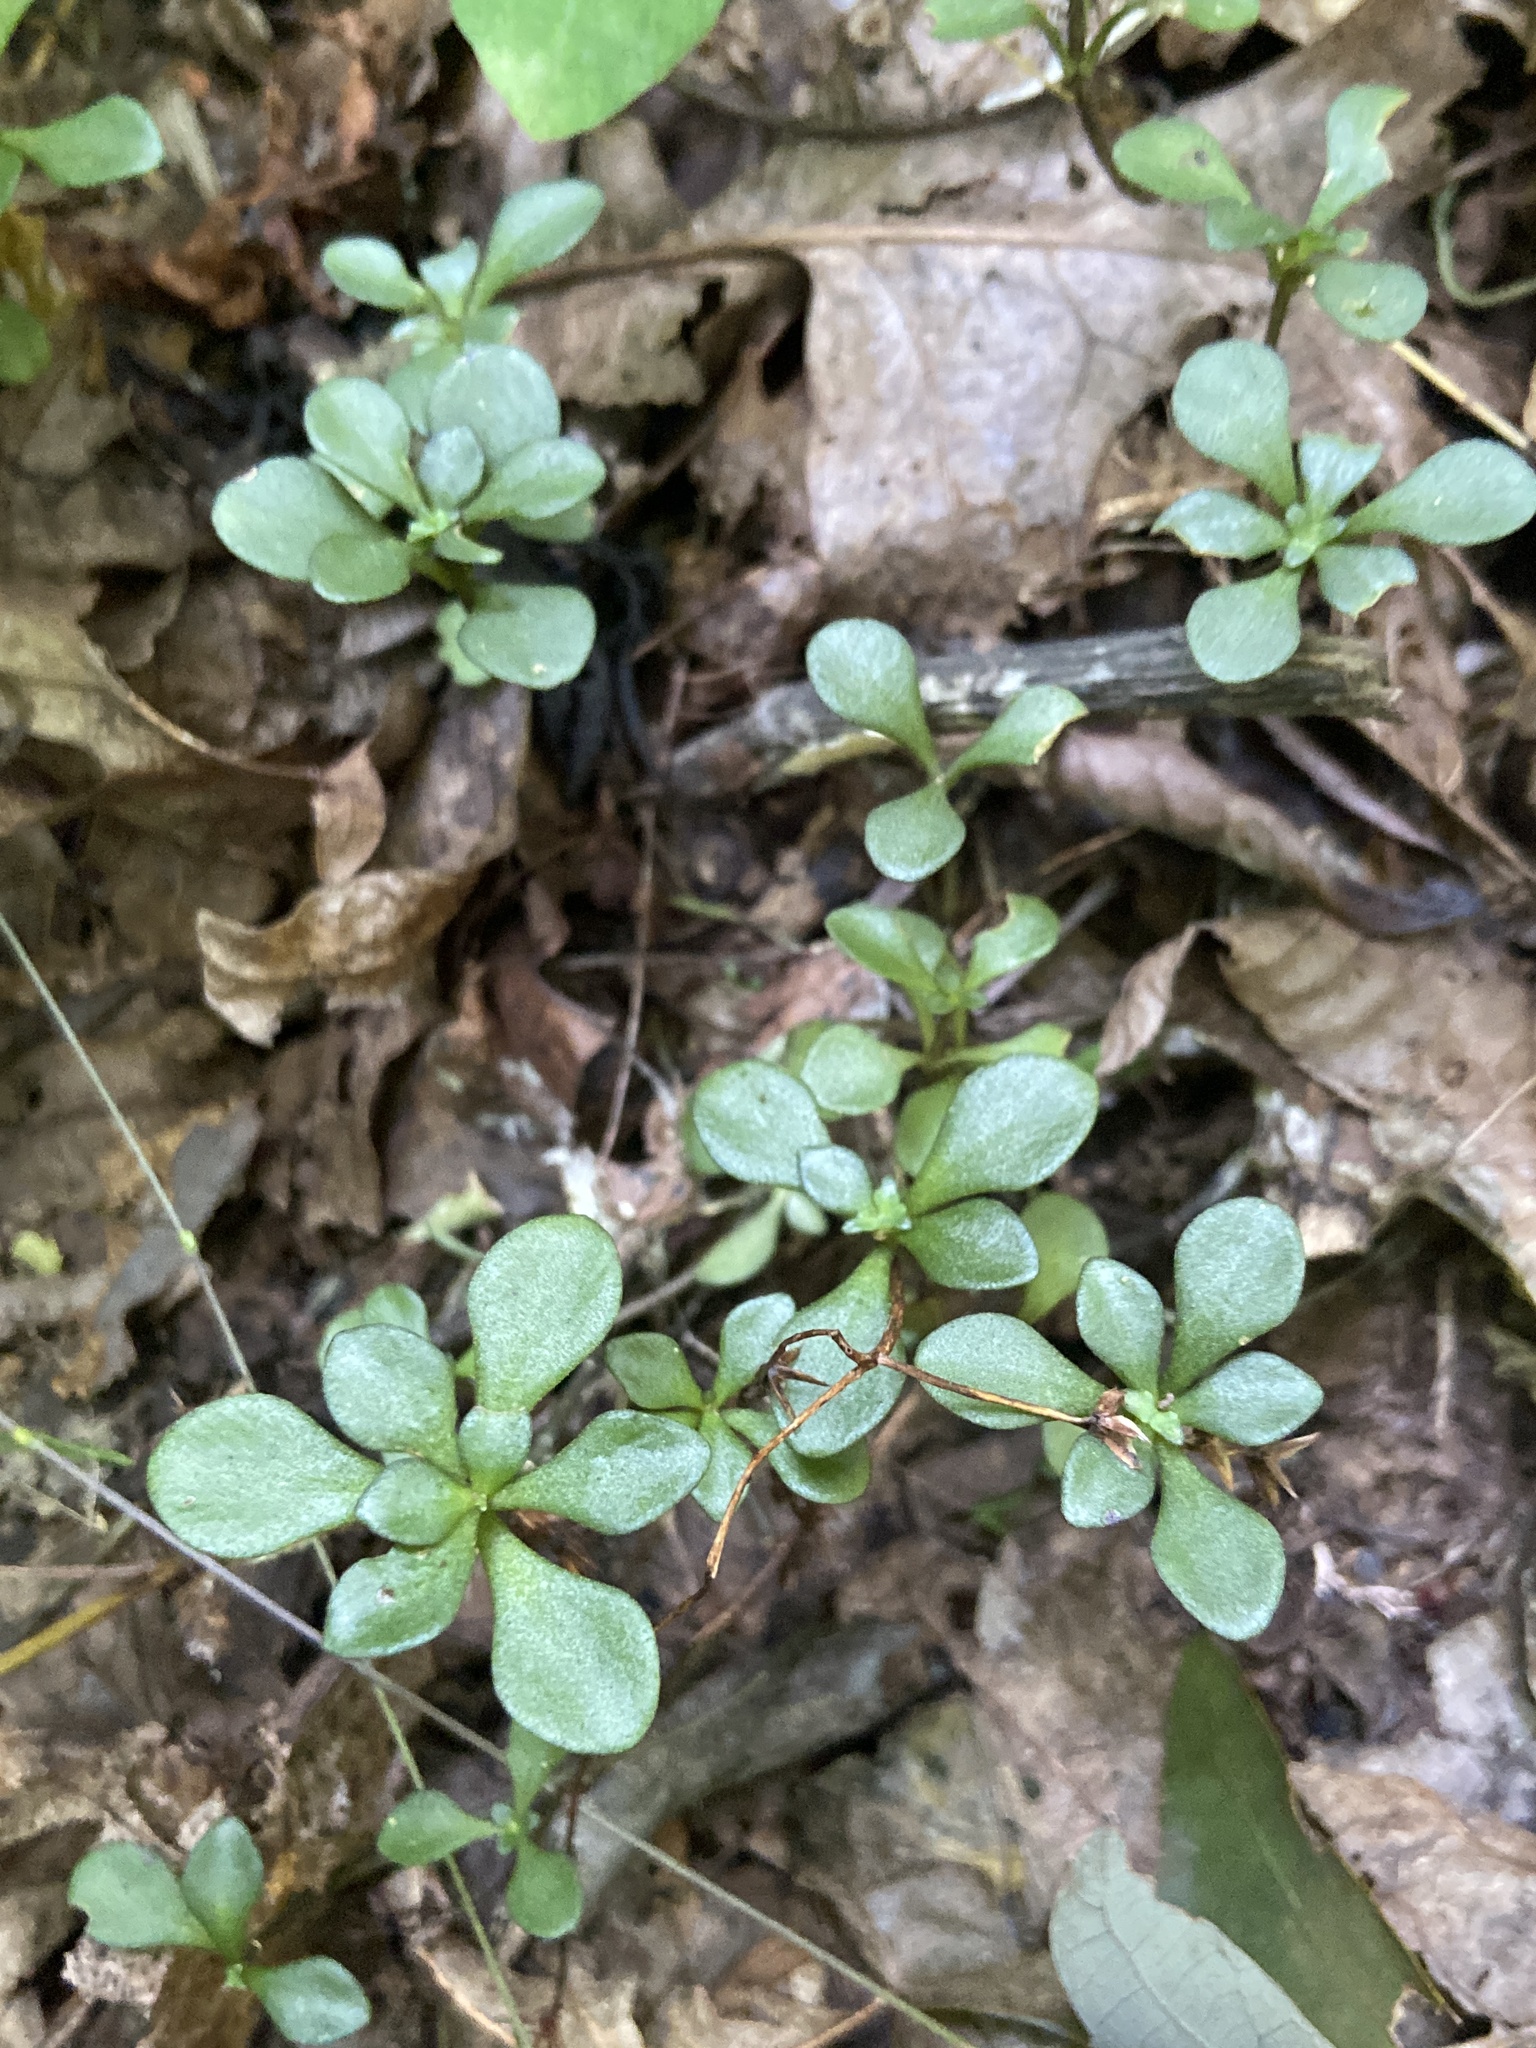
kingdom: Plantae
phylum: Tracheophyta
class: Magnoliopsida
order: Saxifragales
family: Crassulaceae
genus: Sedum
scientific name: Sedum ternatum
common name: Wild stonecrop
